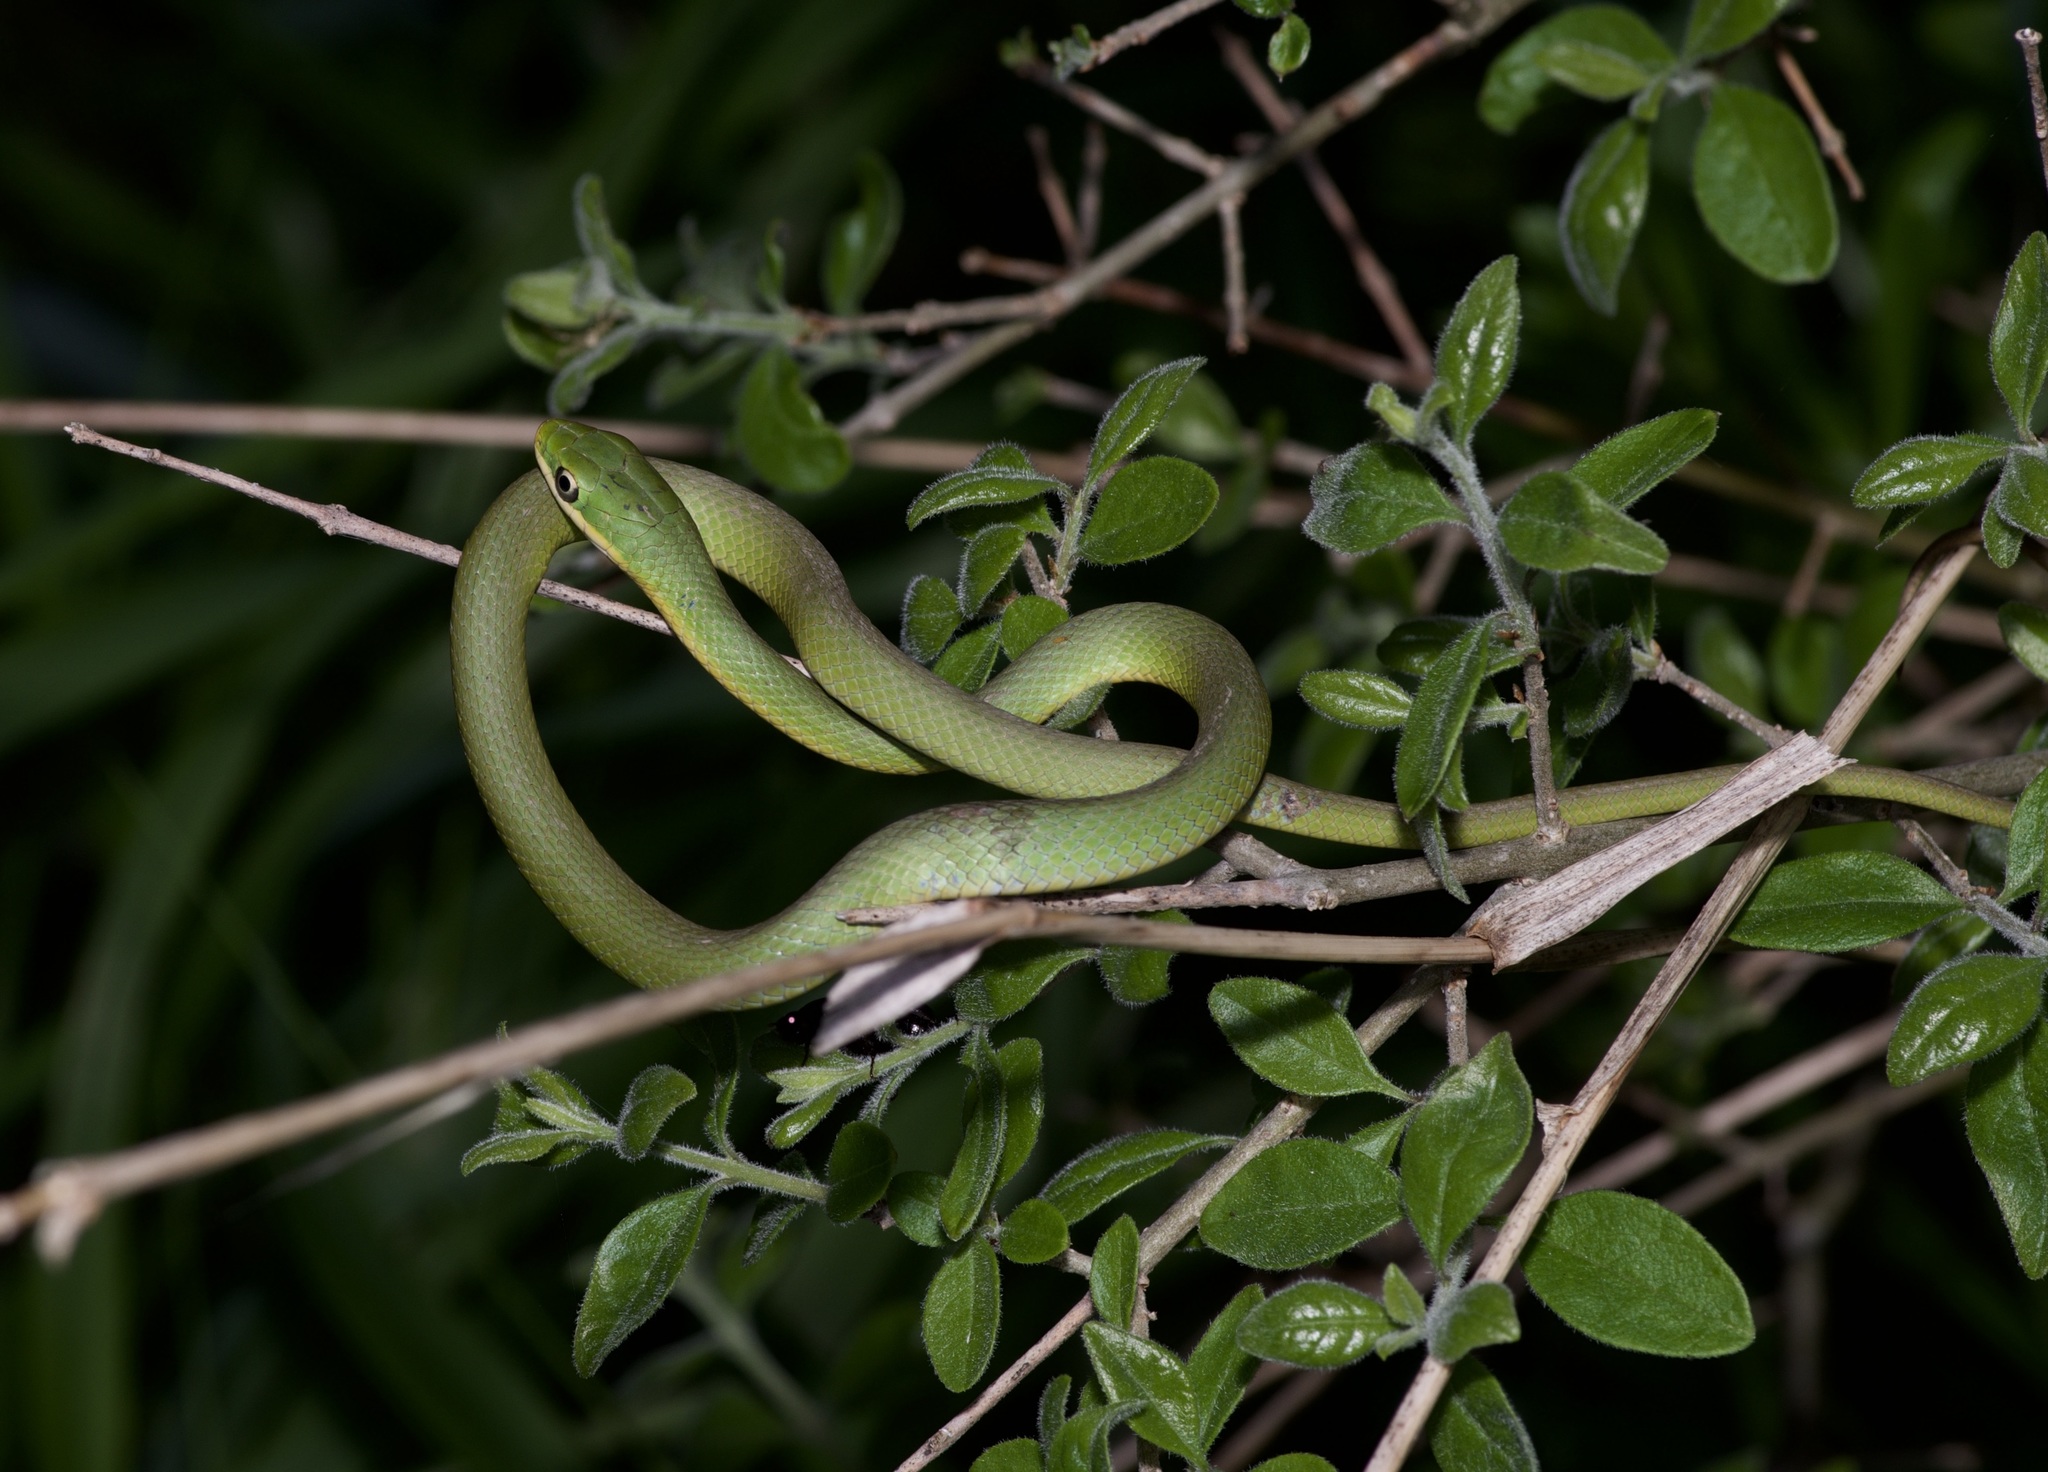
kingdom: Animalia
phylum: Chordata
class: Squamata
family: Colubridae
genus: Opheodrys
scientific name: Opheodrys aestivus
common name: Rough greensnake
